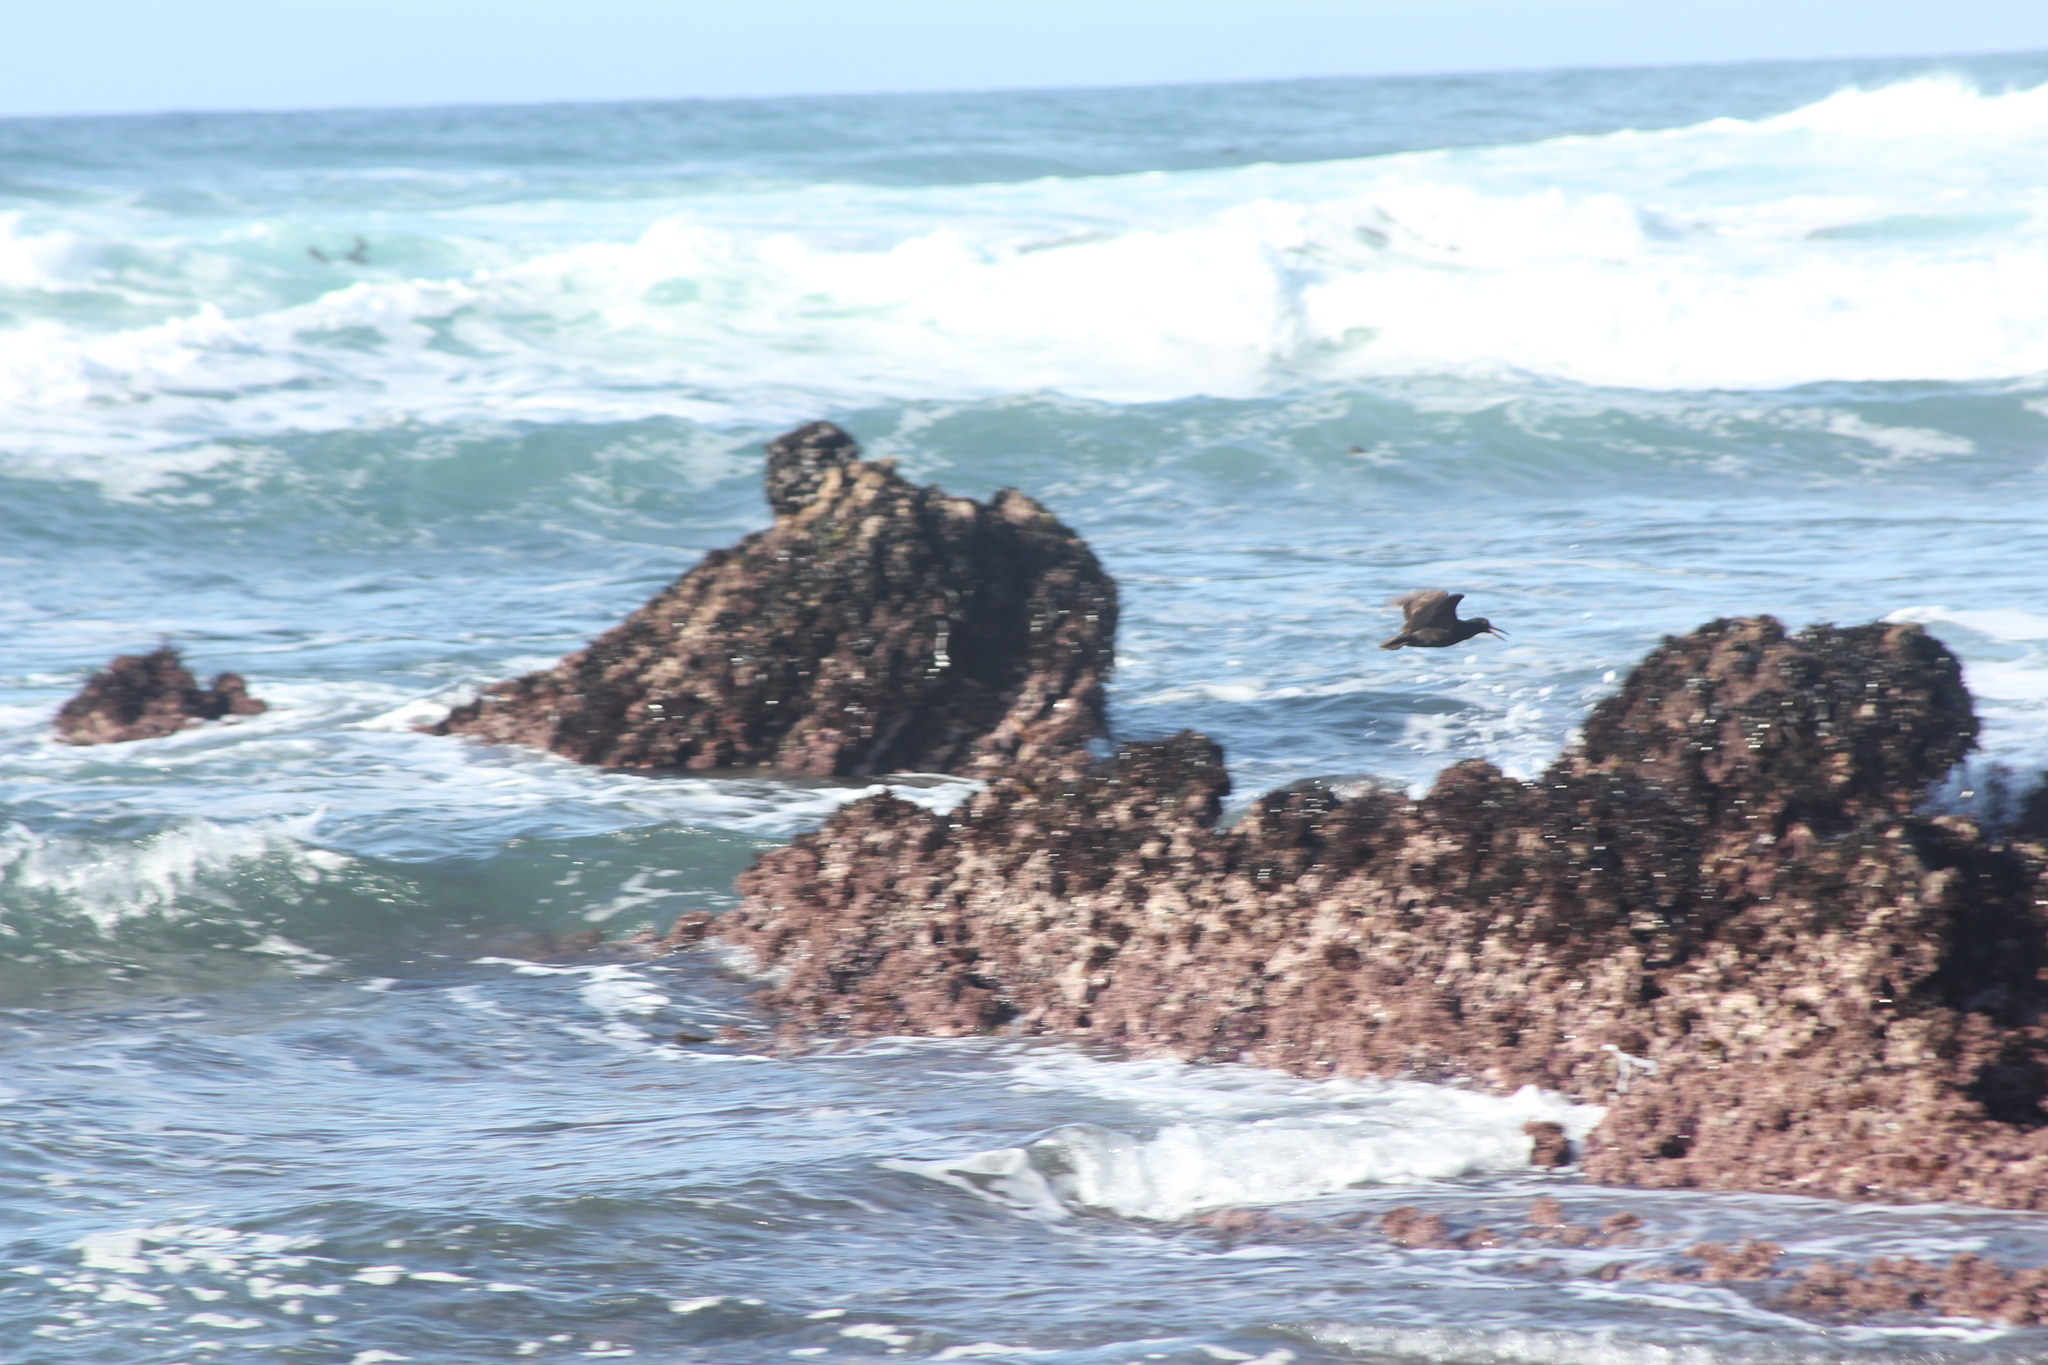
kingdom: Animalia
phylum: Chordata
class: Aves
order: Charadriiformes
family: Haematopodidae
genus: Haematopus
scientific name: Haematopus bachmani
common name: Black oystercatcher
